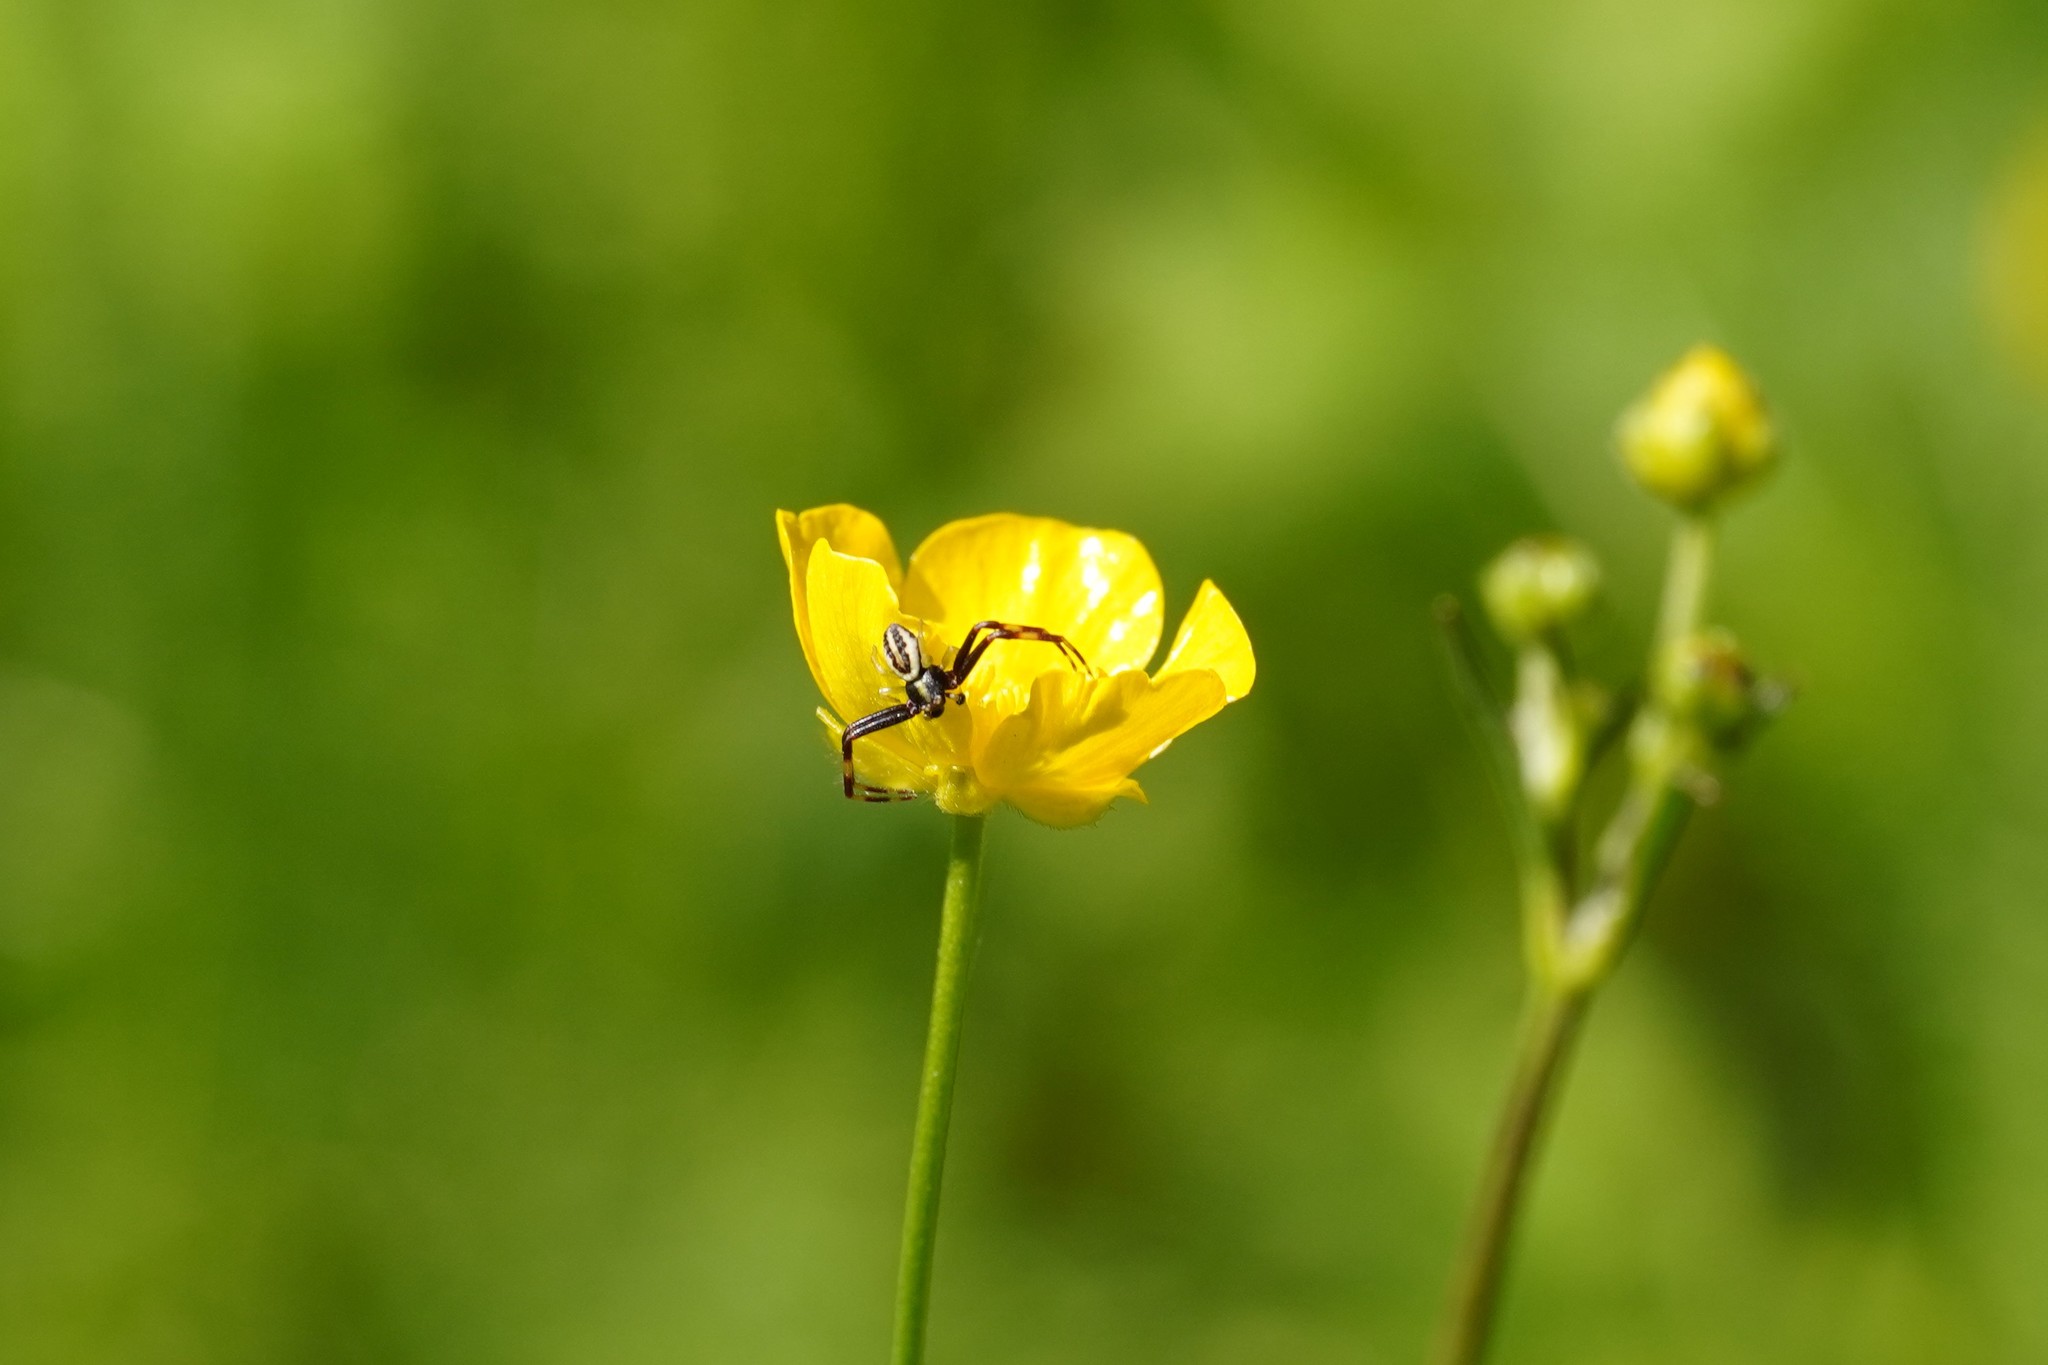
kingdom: Animalia
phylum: Arthropoda
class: Arachnida
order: Araneae
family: Thomisidae
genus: Misumena
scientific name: Misumena vatia
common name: Goldenrod crab spider
